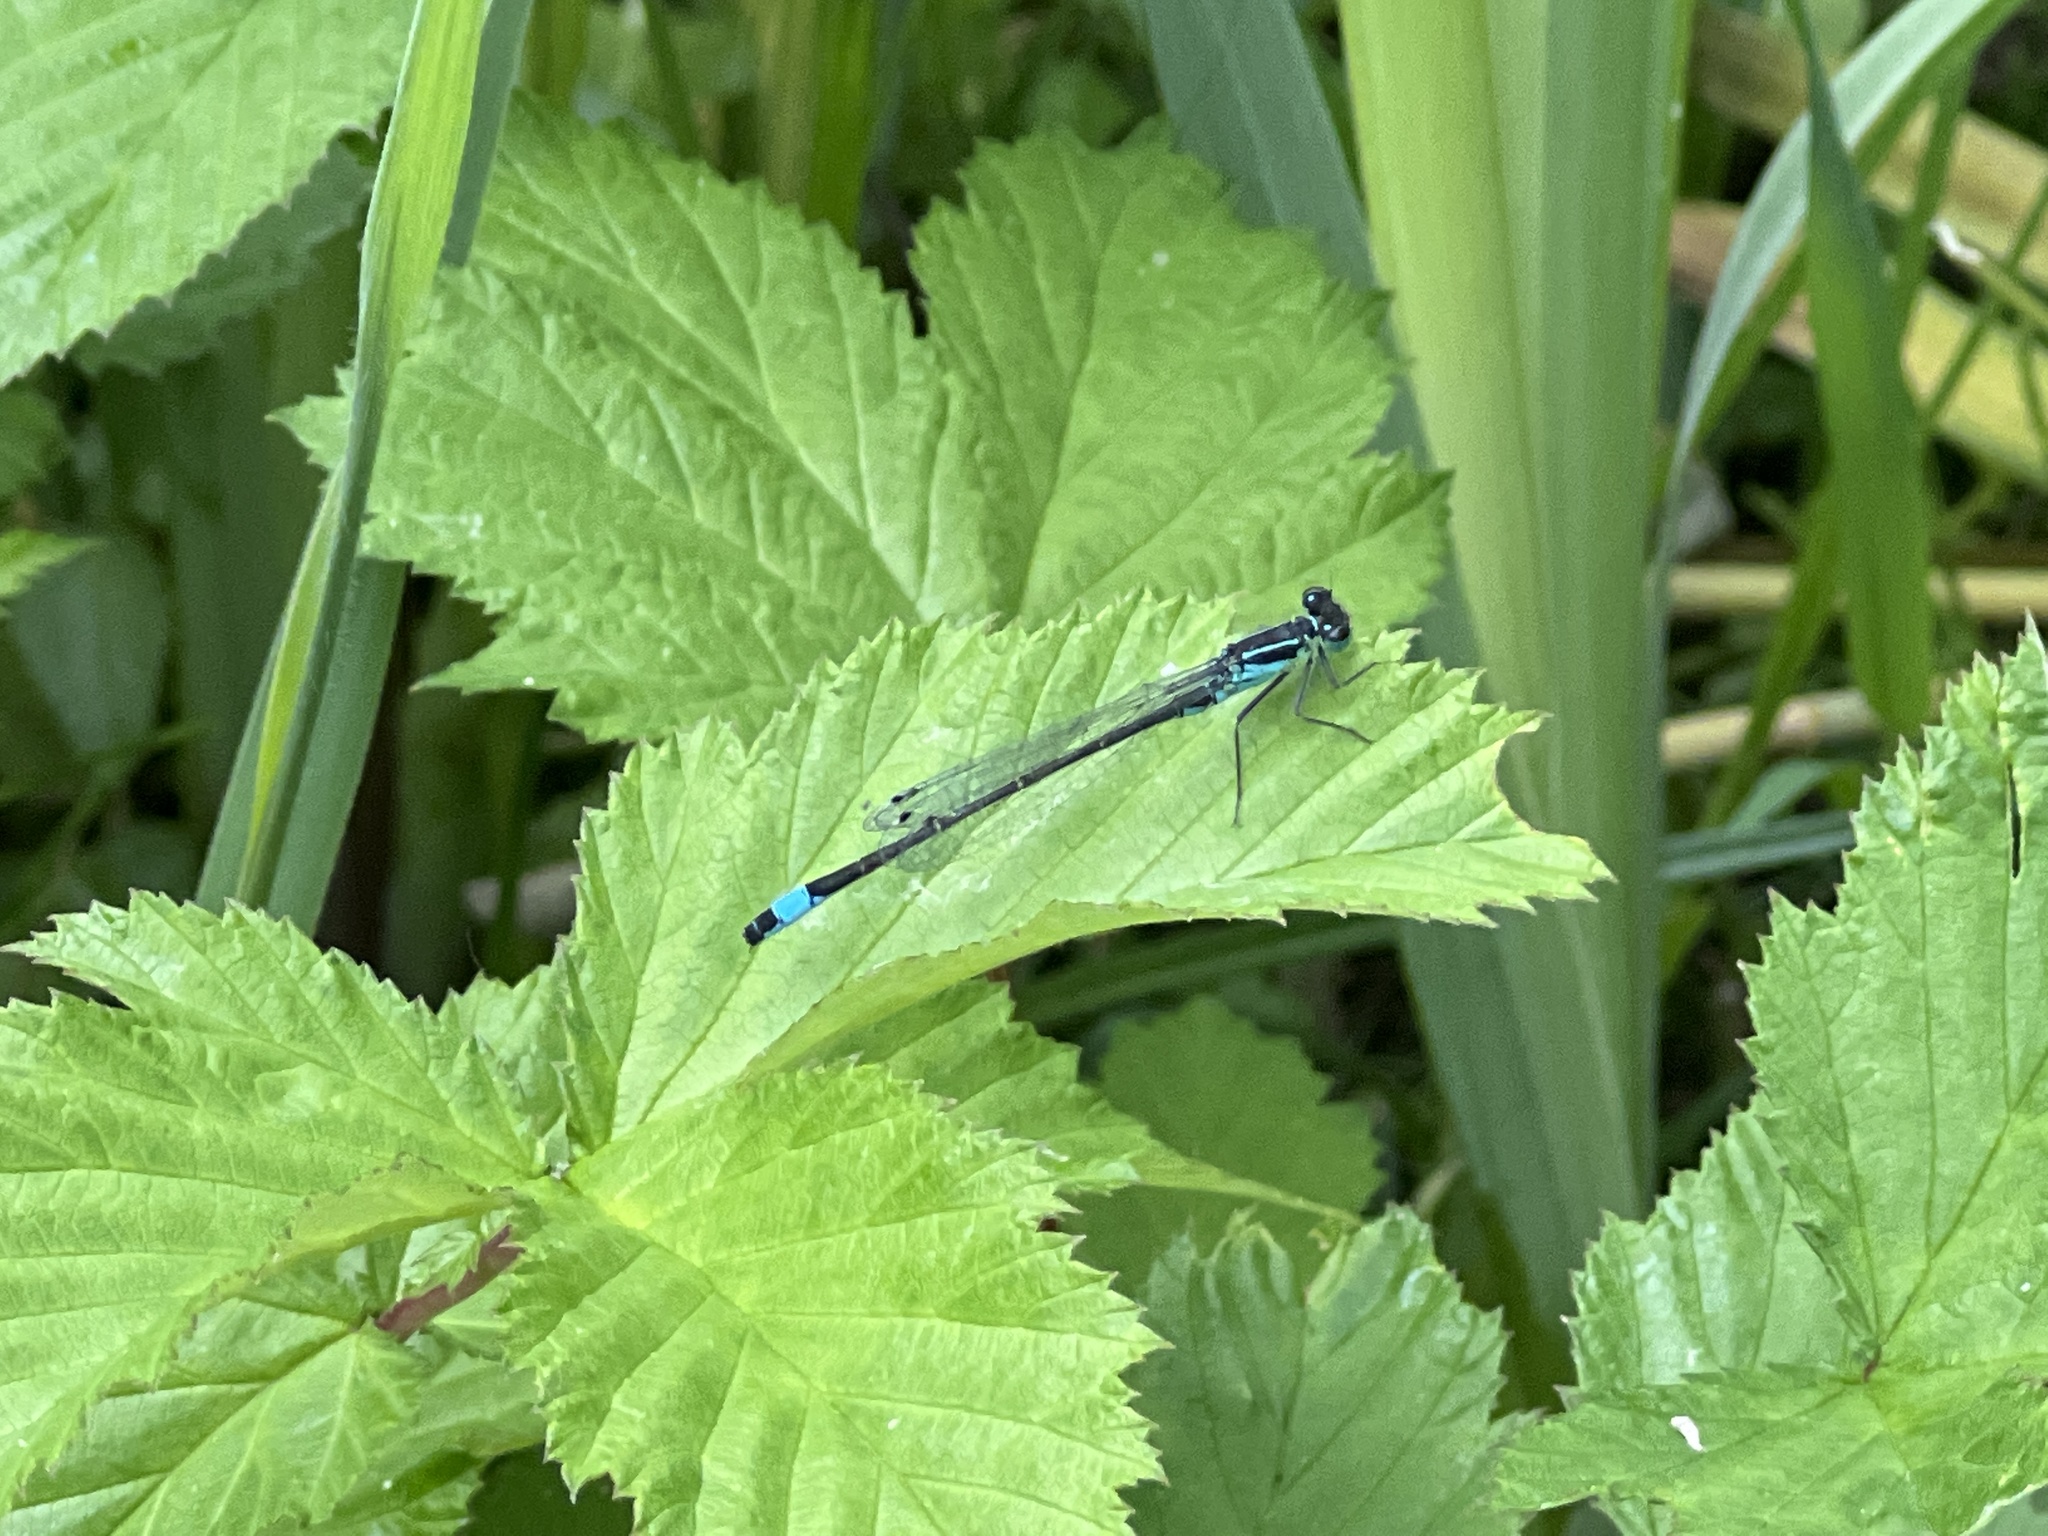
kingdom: Animalia
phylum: Arthropoda
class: Insecta
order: Odonata
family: Coenagrionidae
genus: Ischnura
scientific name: Ischnura elegans
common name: Blue-tailed damselfly
